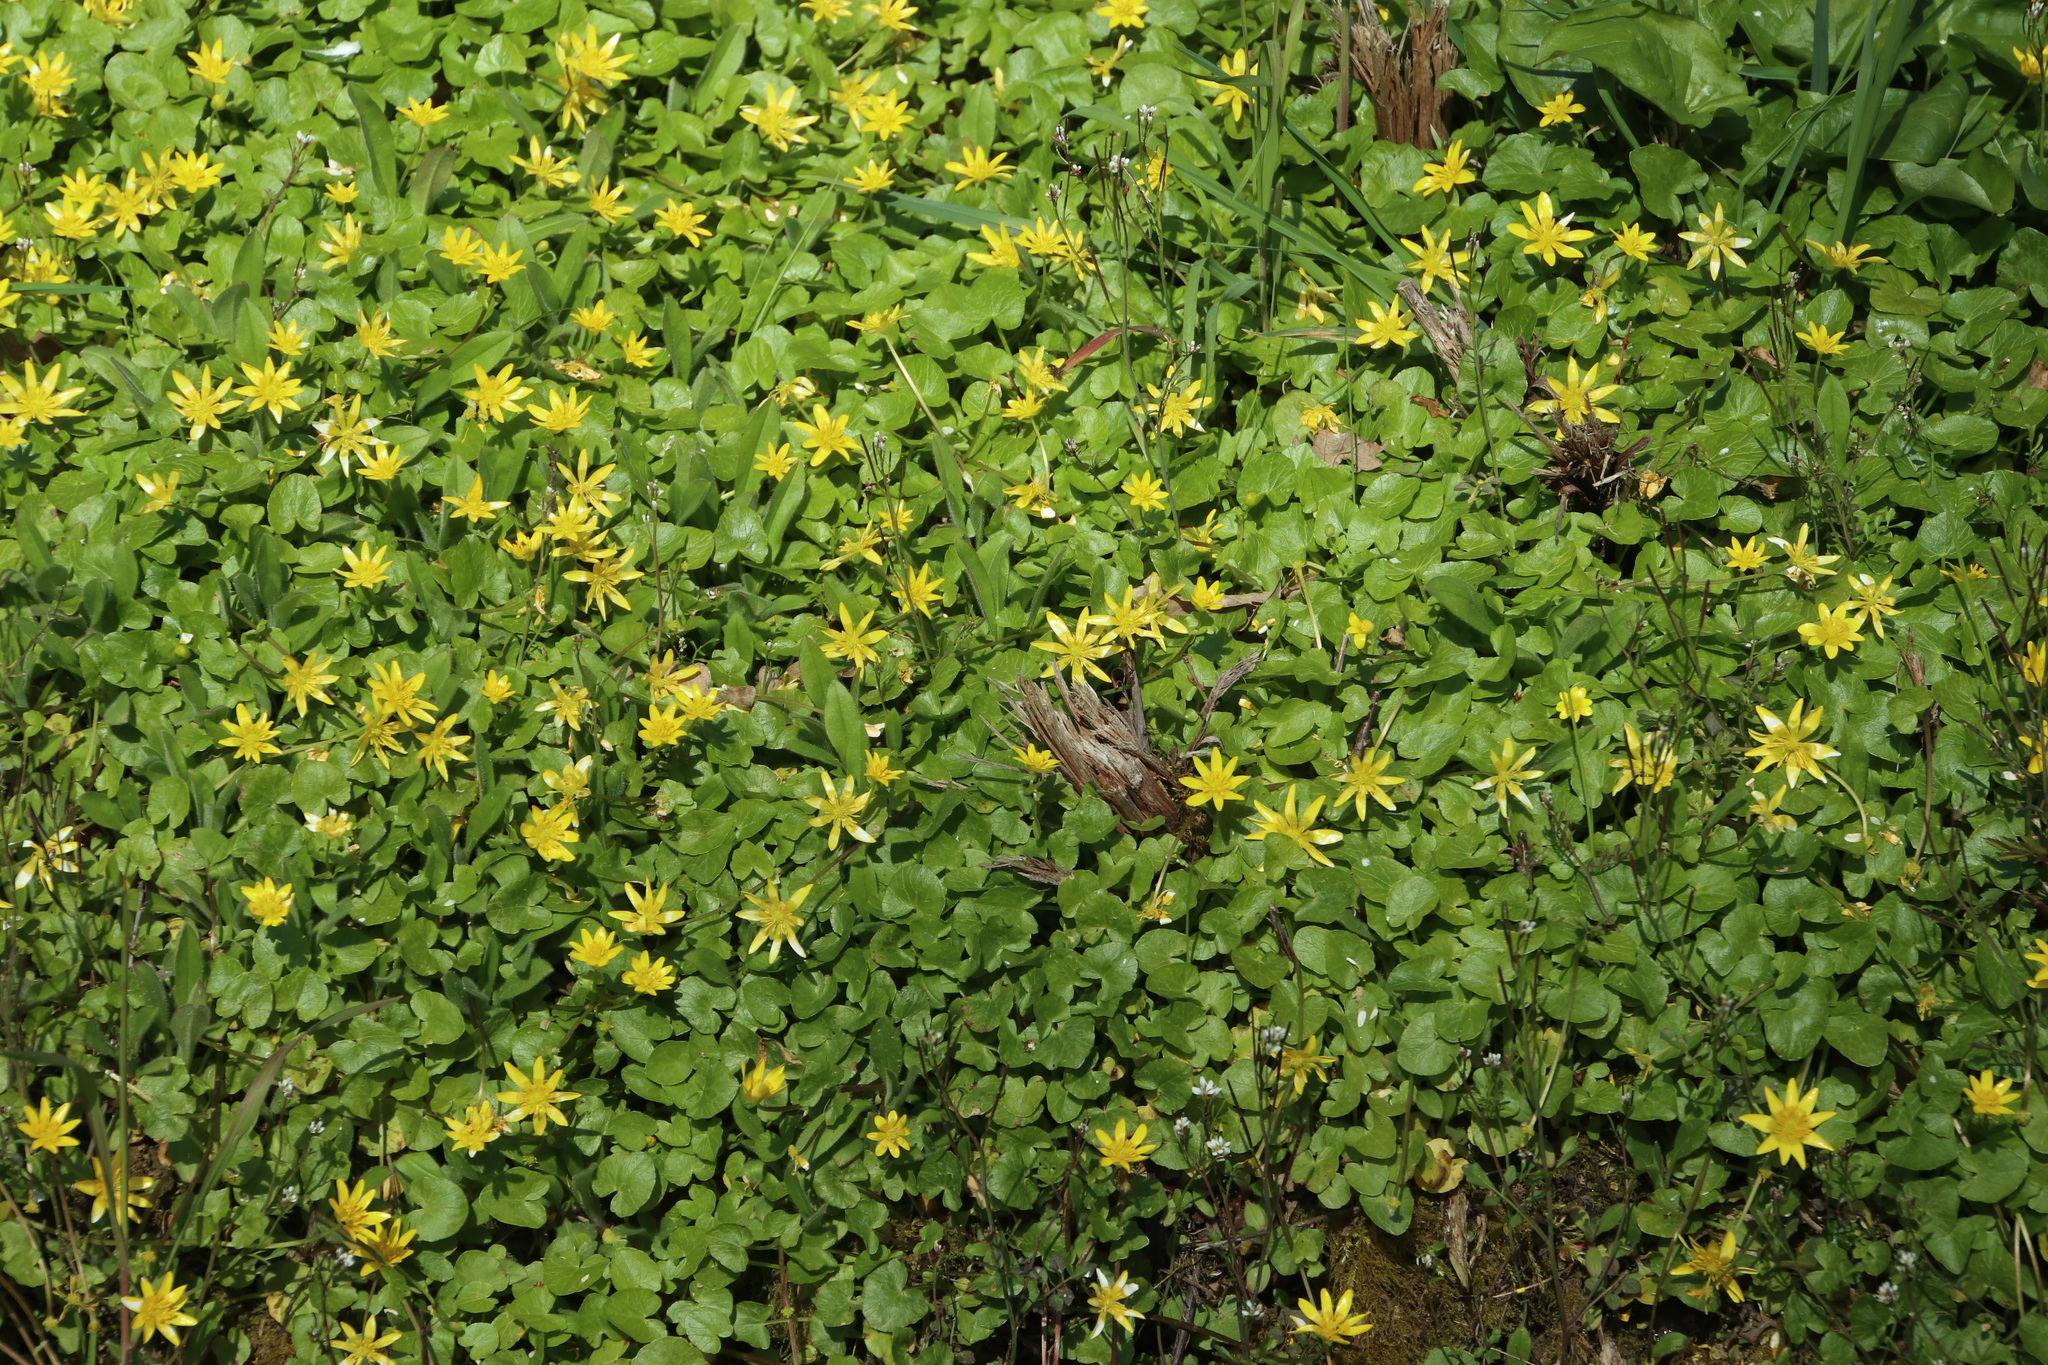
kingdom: Plantae
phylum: Tracheophyta
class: Magnoliopsida
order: Ranunculales
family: Ranunculaceae
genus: Ficaria
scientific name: Ficaria verna
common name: Lesser celandine
